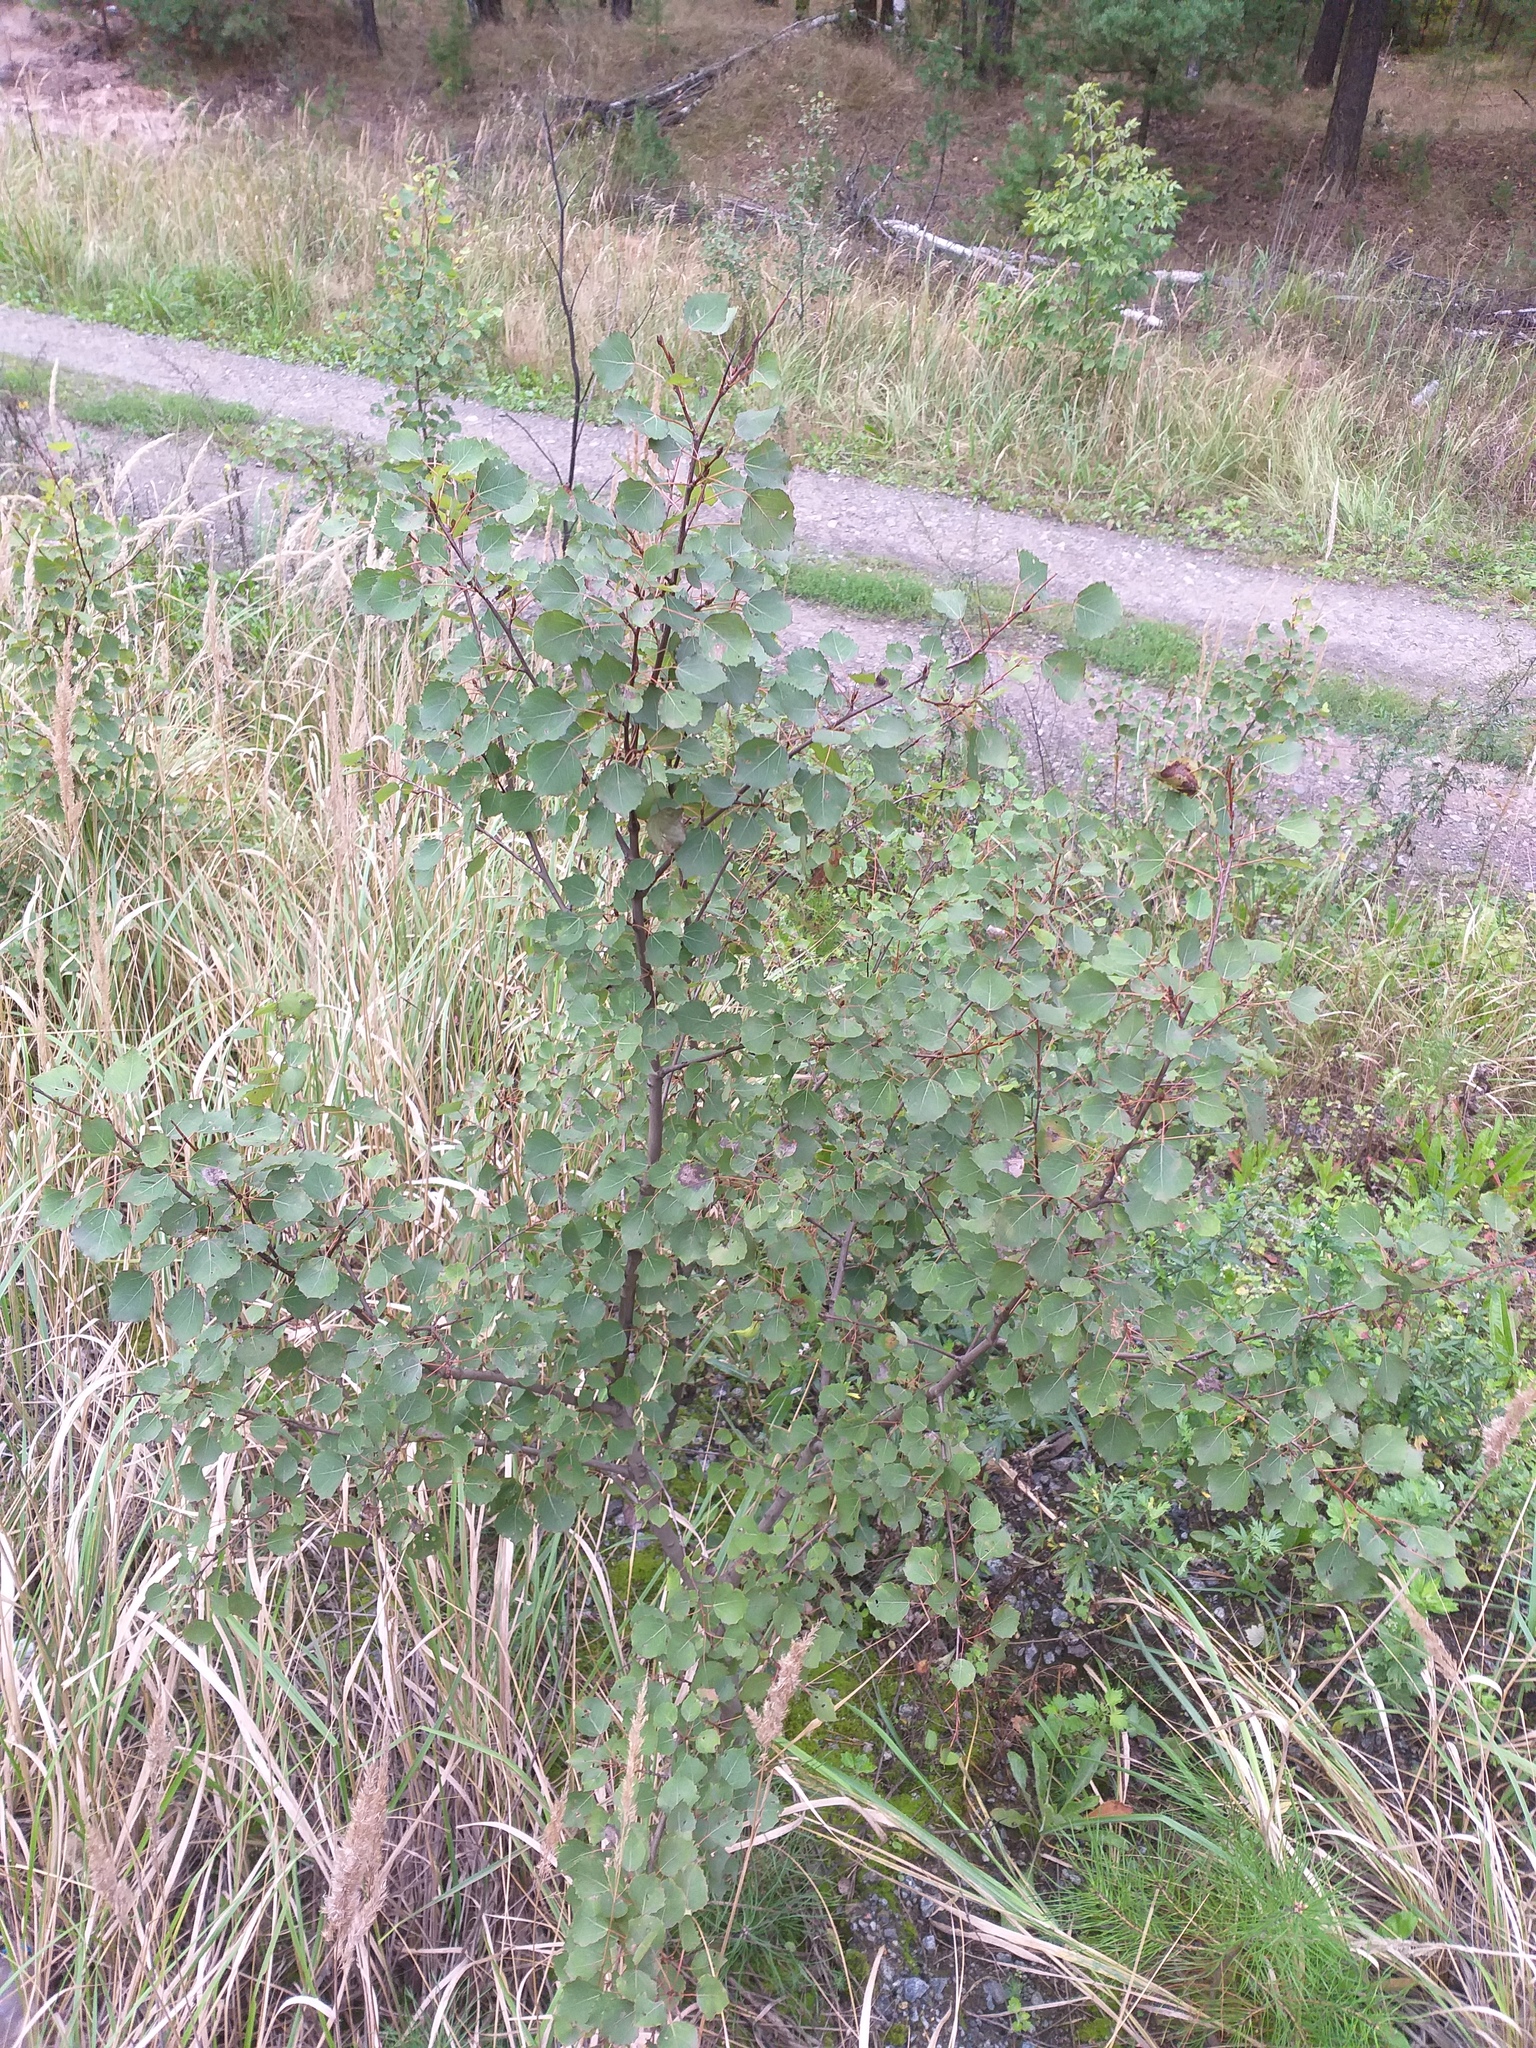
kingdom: Plantae
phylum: Tracheophyta
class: Magnoliopsida
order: Malpighiales
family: Salicaceae
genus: Populus
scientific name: Populus tremula
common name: European aspen
